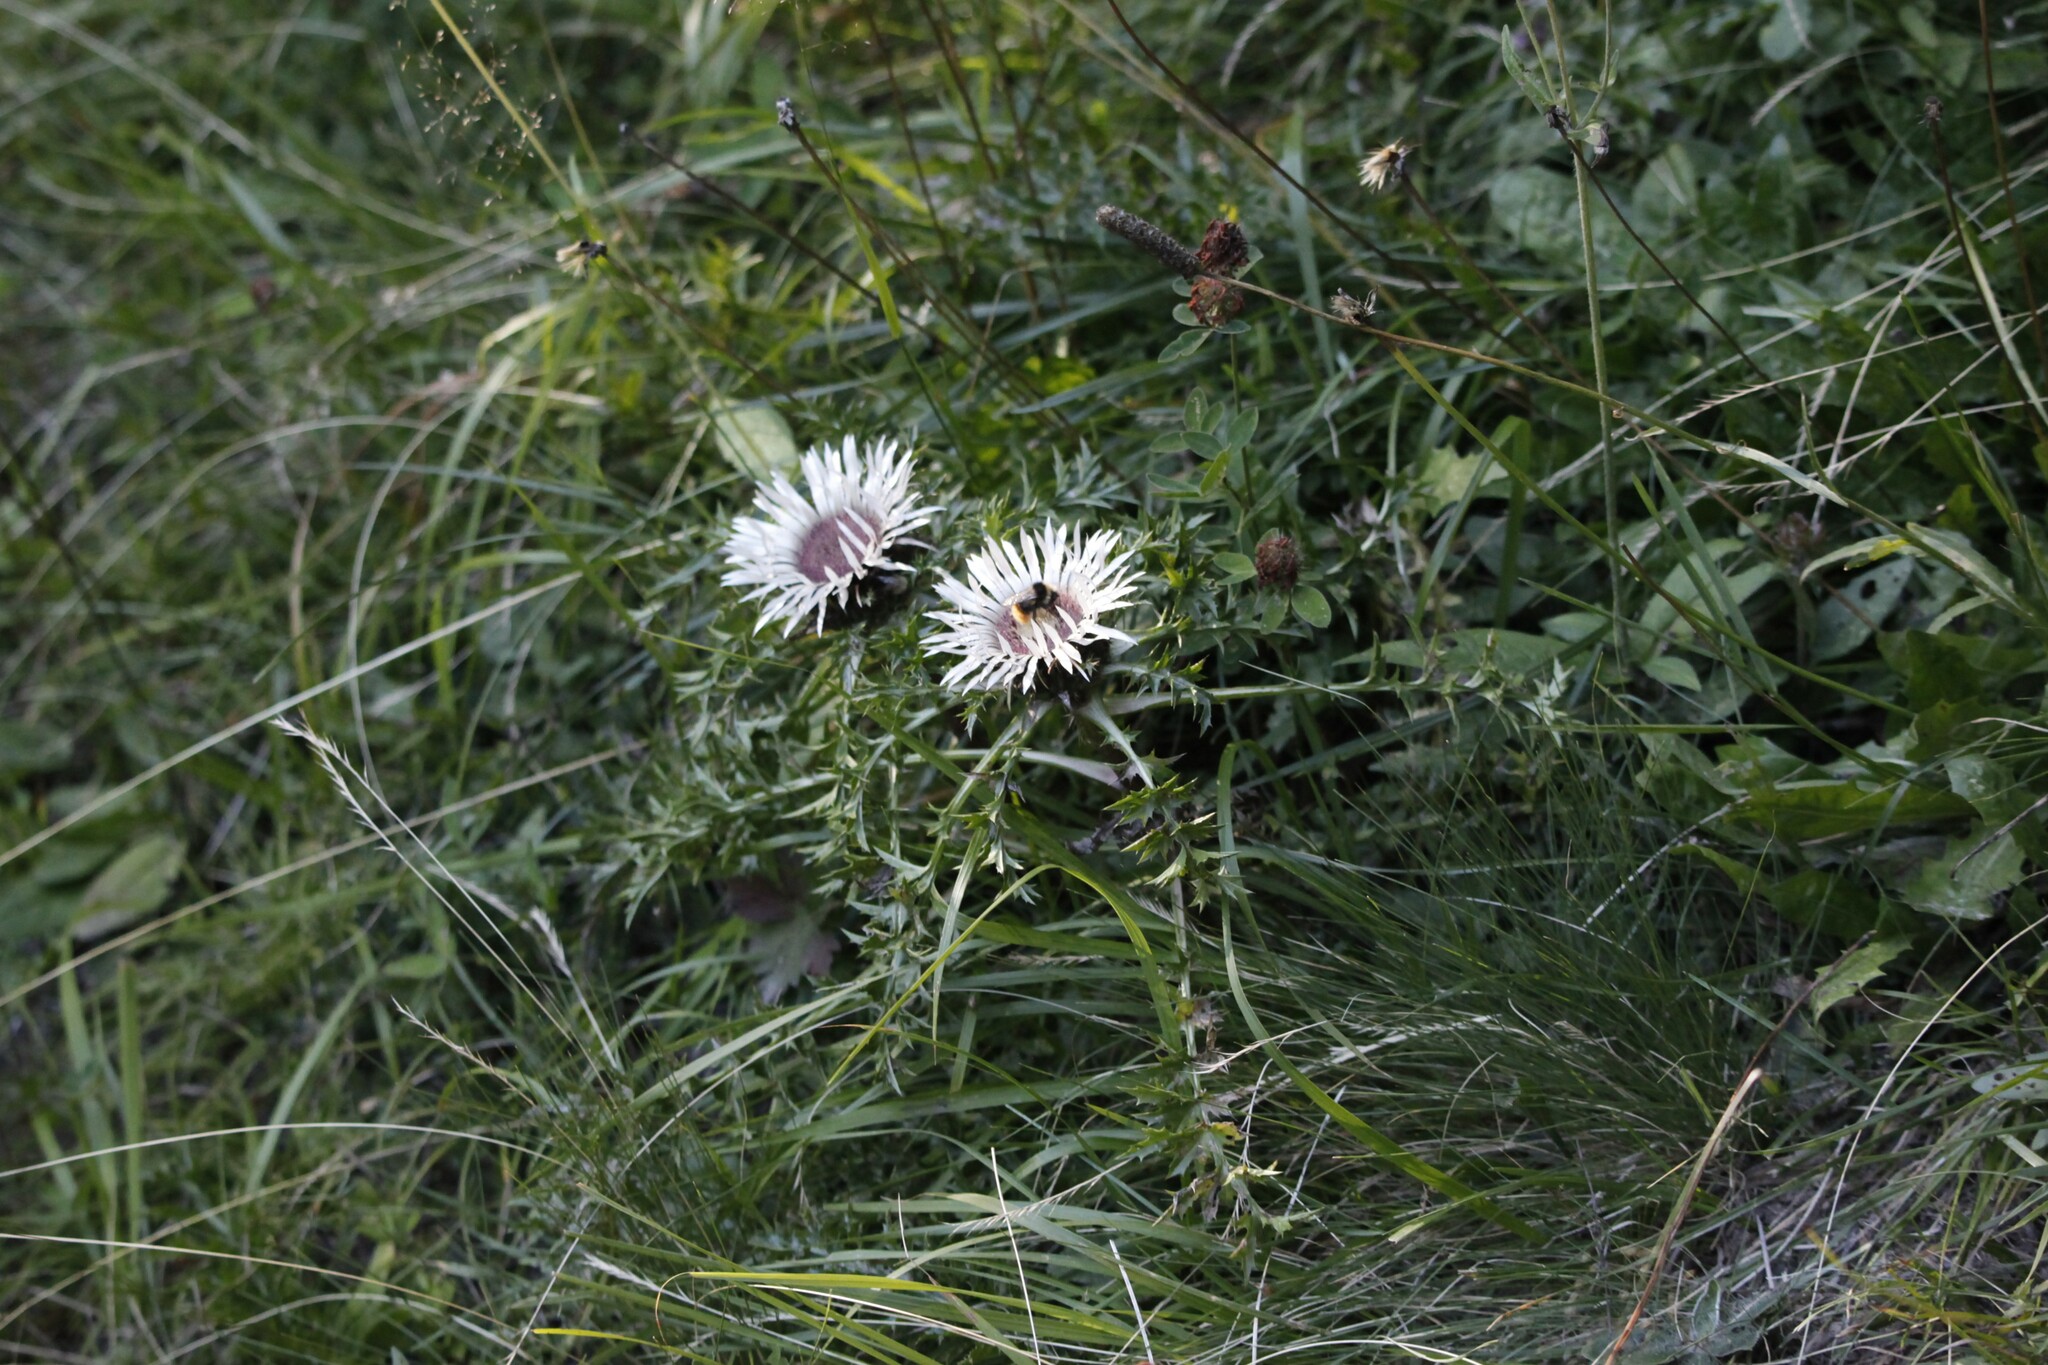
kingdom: Plantae
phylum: Tracheophyta
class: Magnoliopsida
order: Asterales
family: Asteraceae
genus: Carlina
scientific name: Carlina acaulis
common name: Stemless carline thistle
